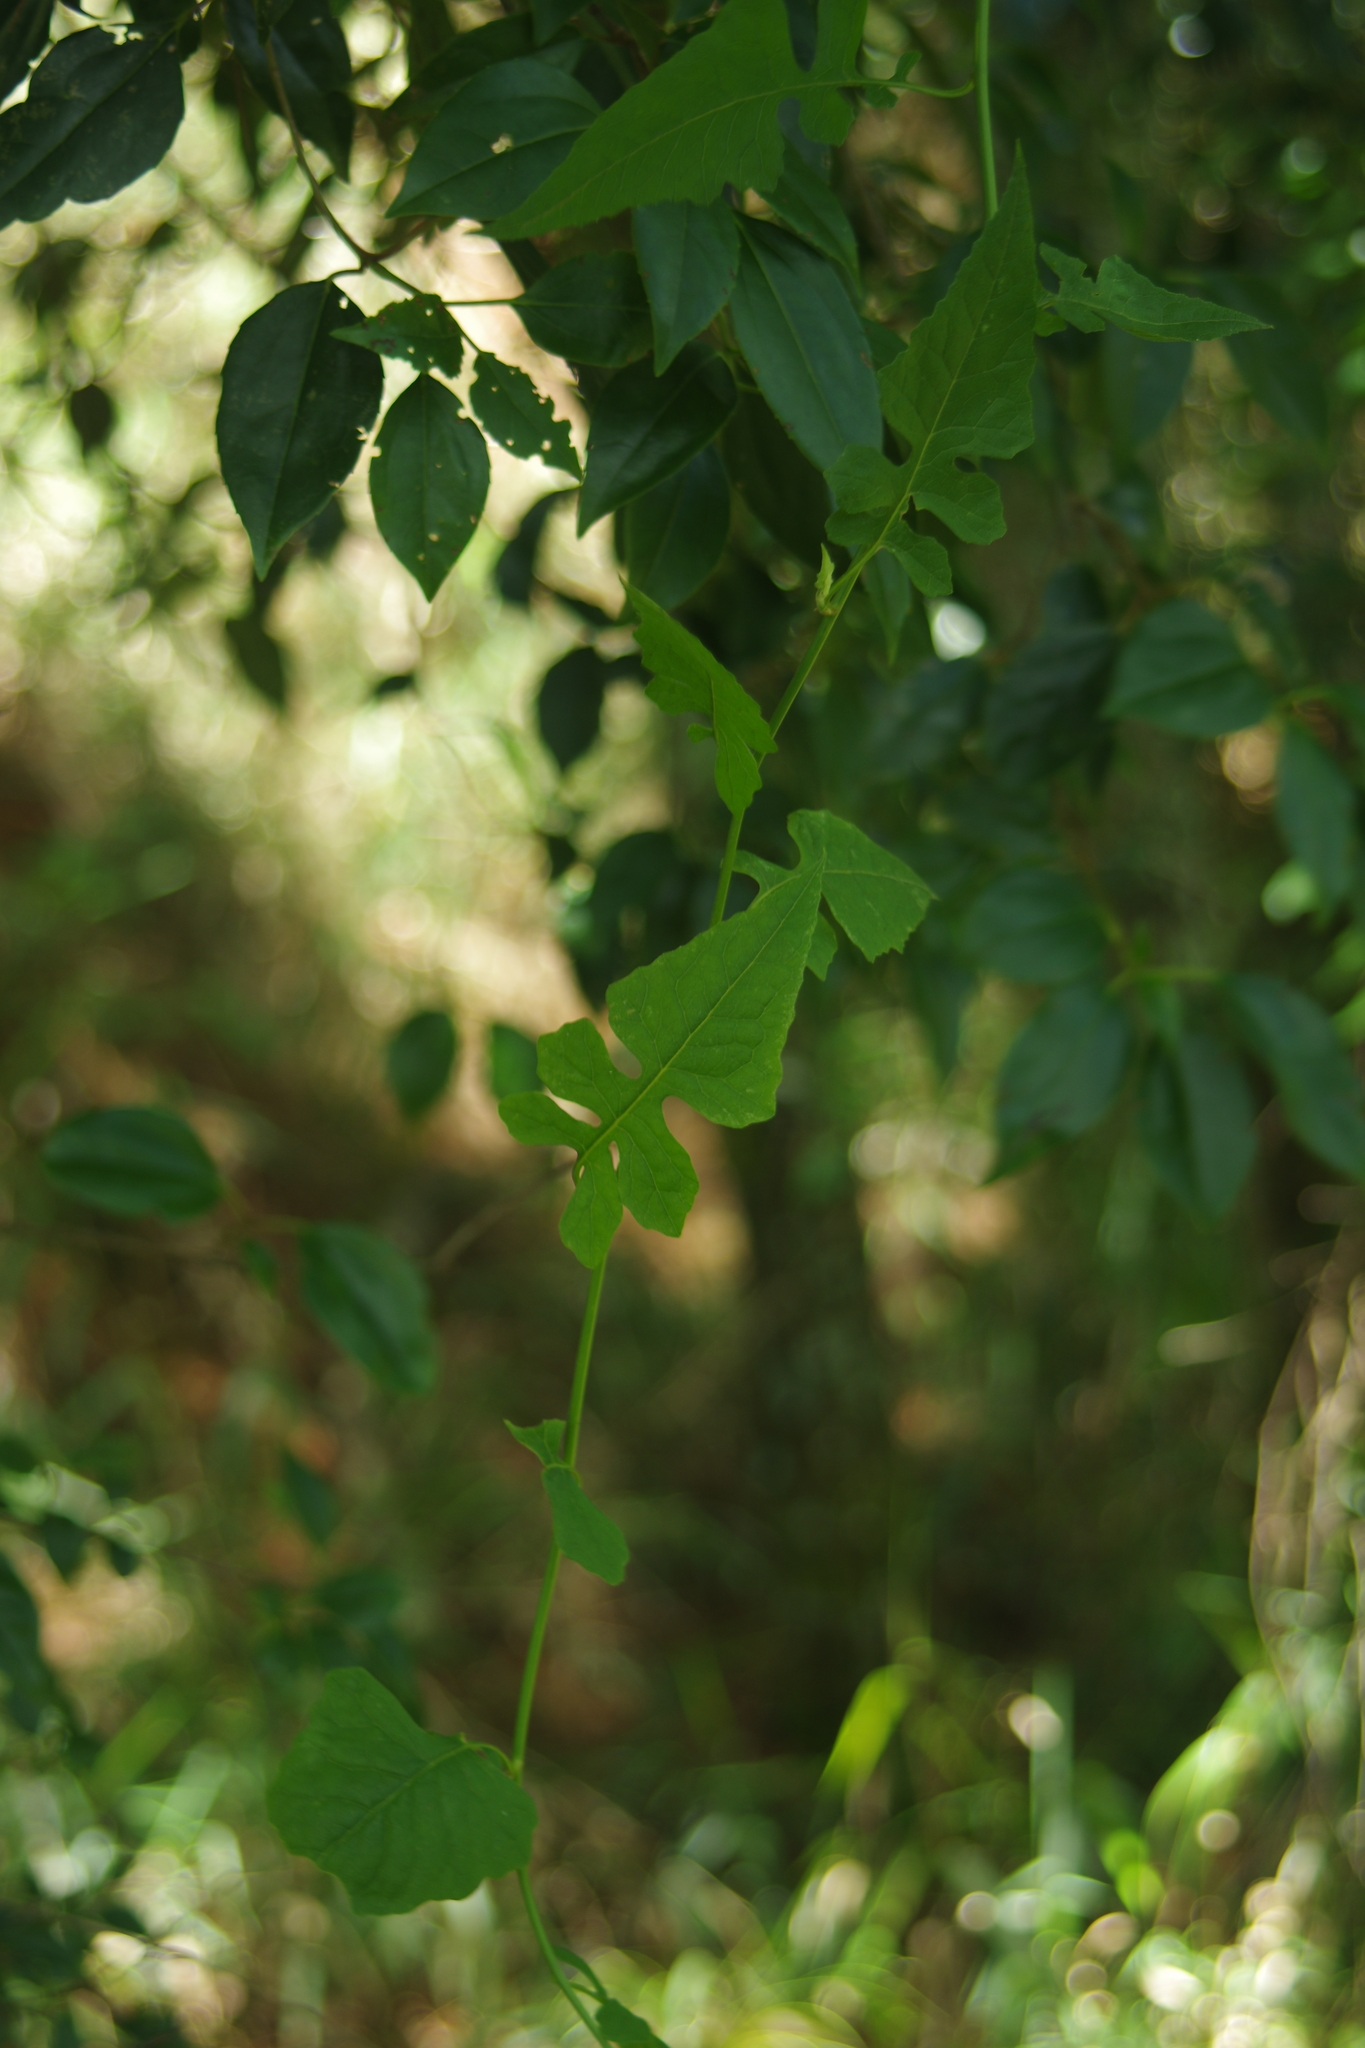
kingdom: Plantae
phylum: Tracheophyta
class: Magnoliopsida
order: Asterales
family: Asteraceae
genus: Senecio
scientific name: Senecio scandens
